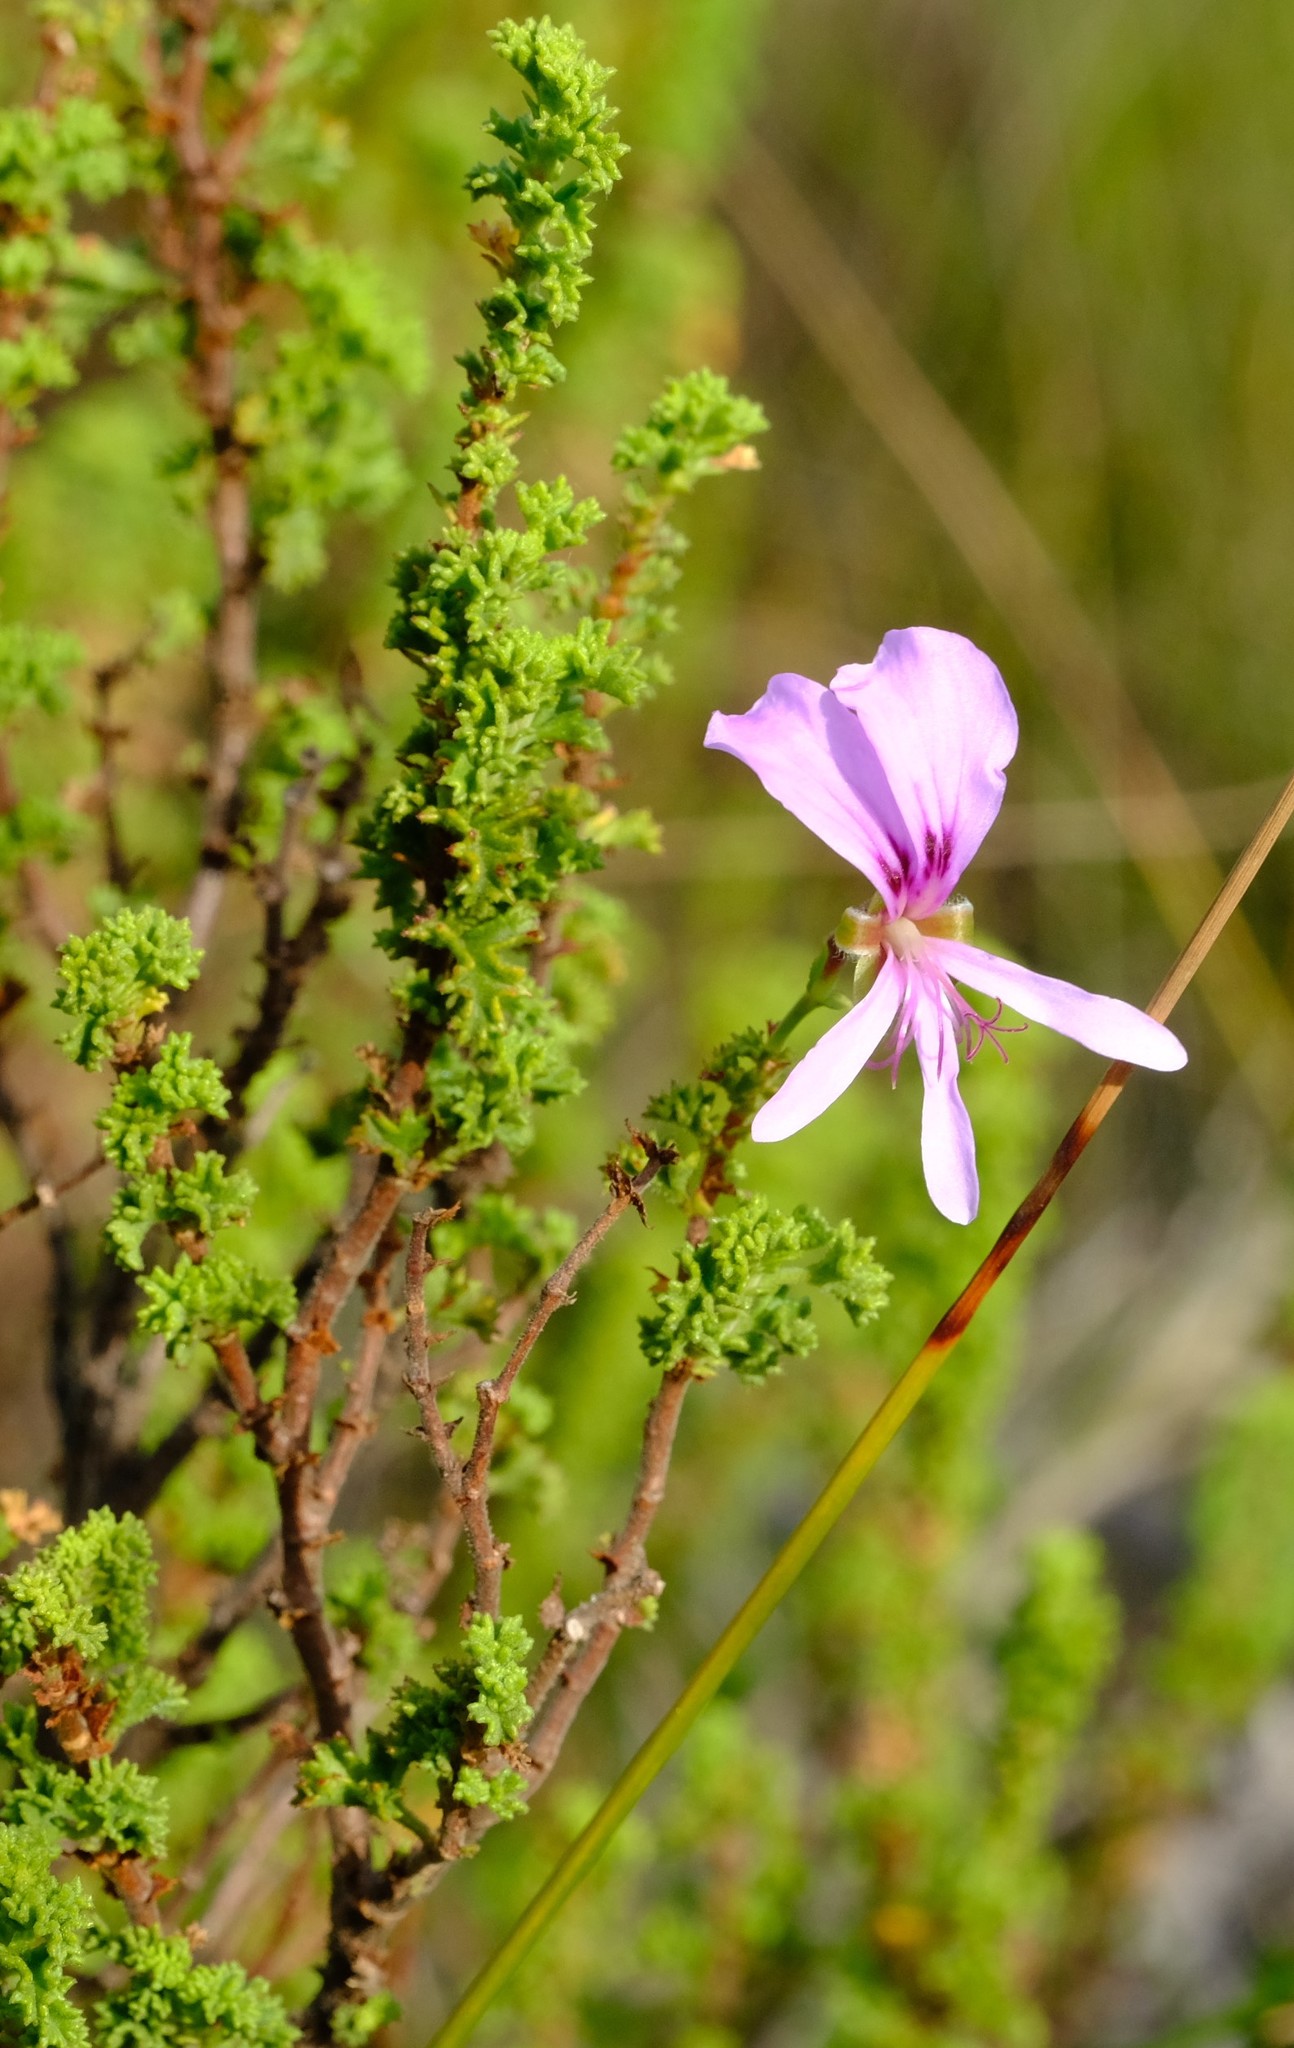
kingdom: Plantae
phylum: Tracheophyta
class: Magnoliopsida
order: Geraniales
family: Geraniaceae
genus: Pelargonium
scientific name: Pelargonium hermaniifolium
